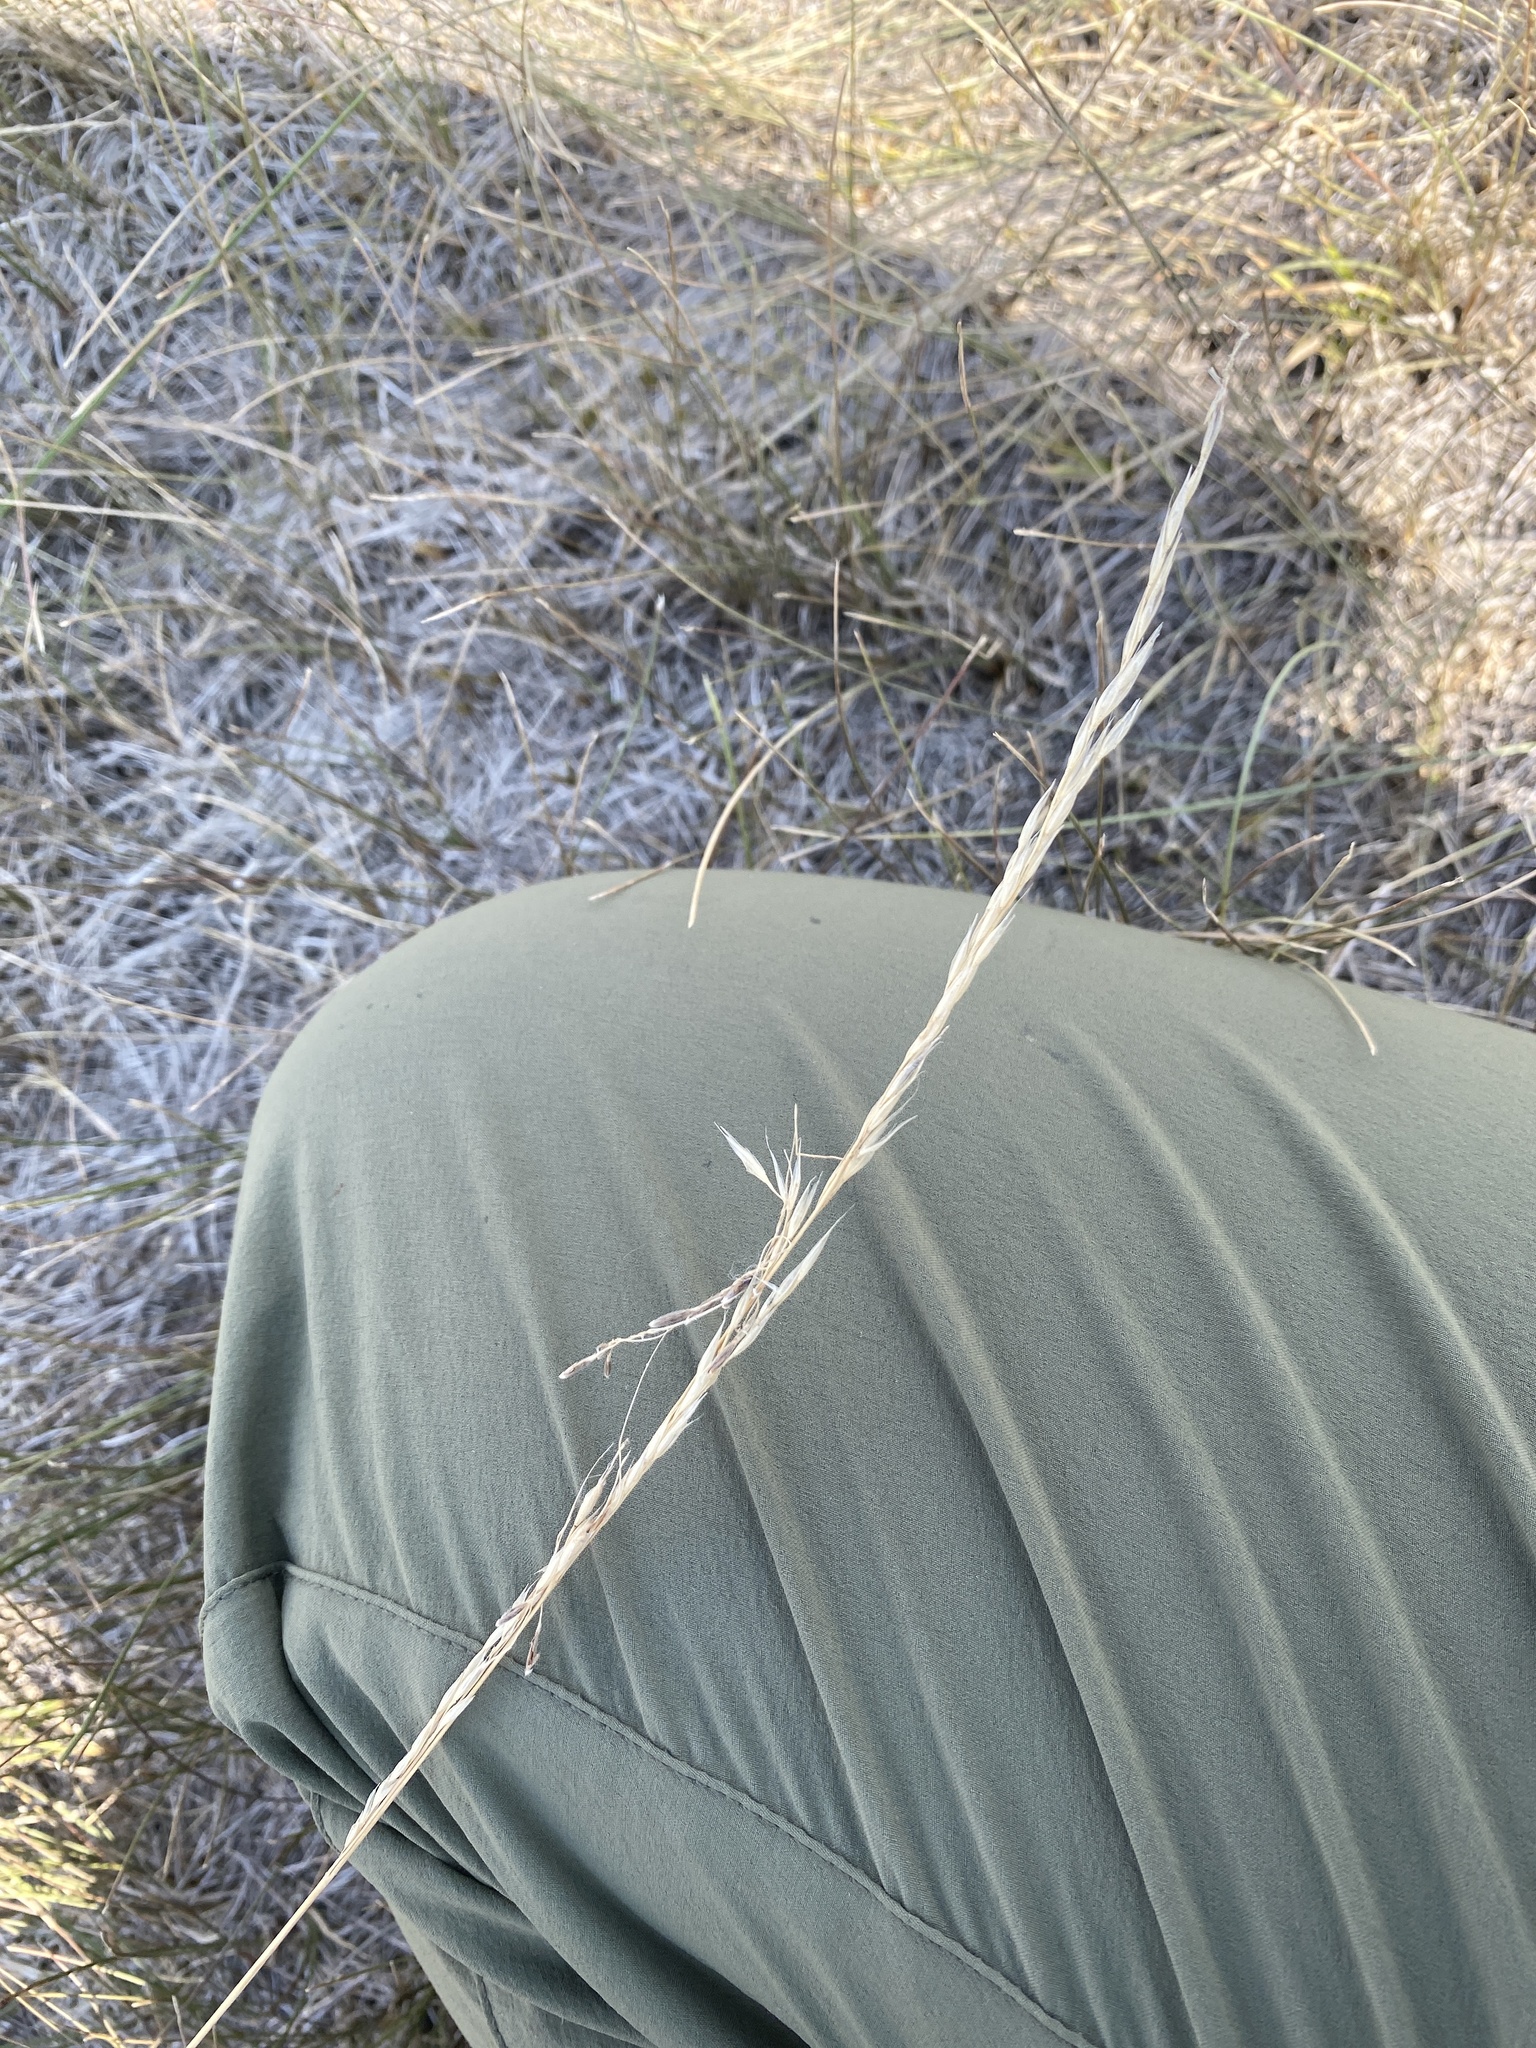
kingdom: Plantae
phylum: Tracheophyta
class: Liliopsida
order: Poales
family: Poaceae
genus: Nassella
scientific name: Nassella viridula
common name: Green needlegrass
